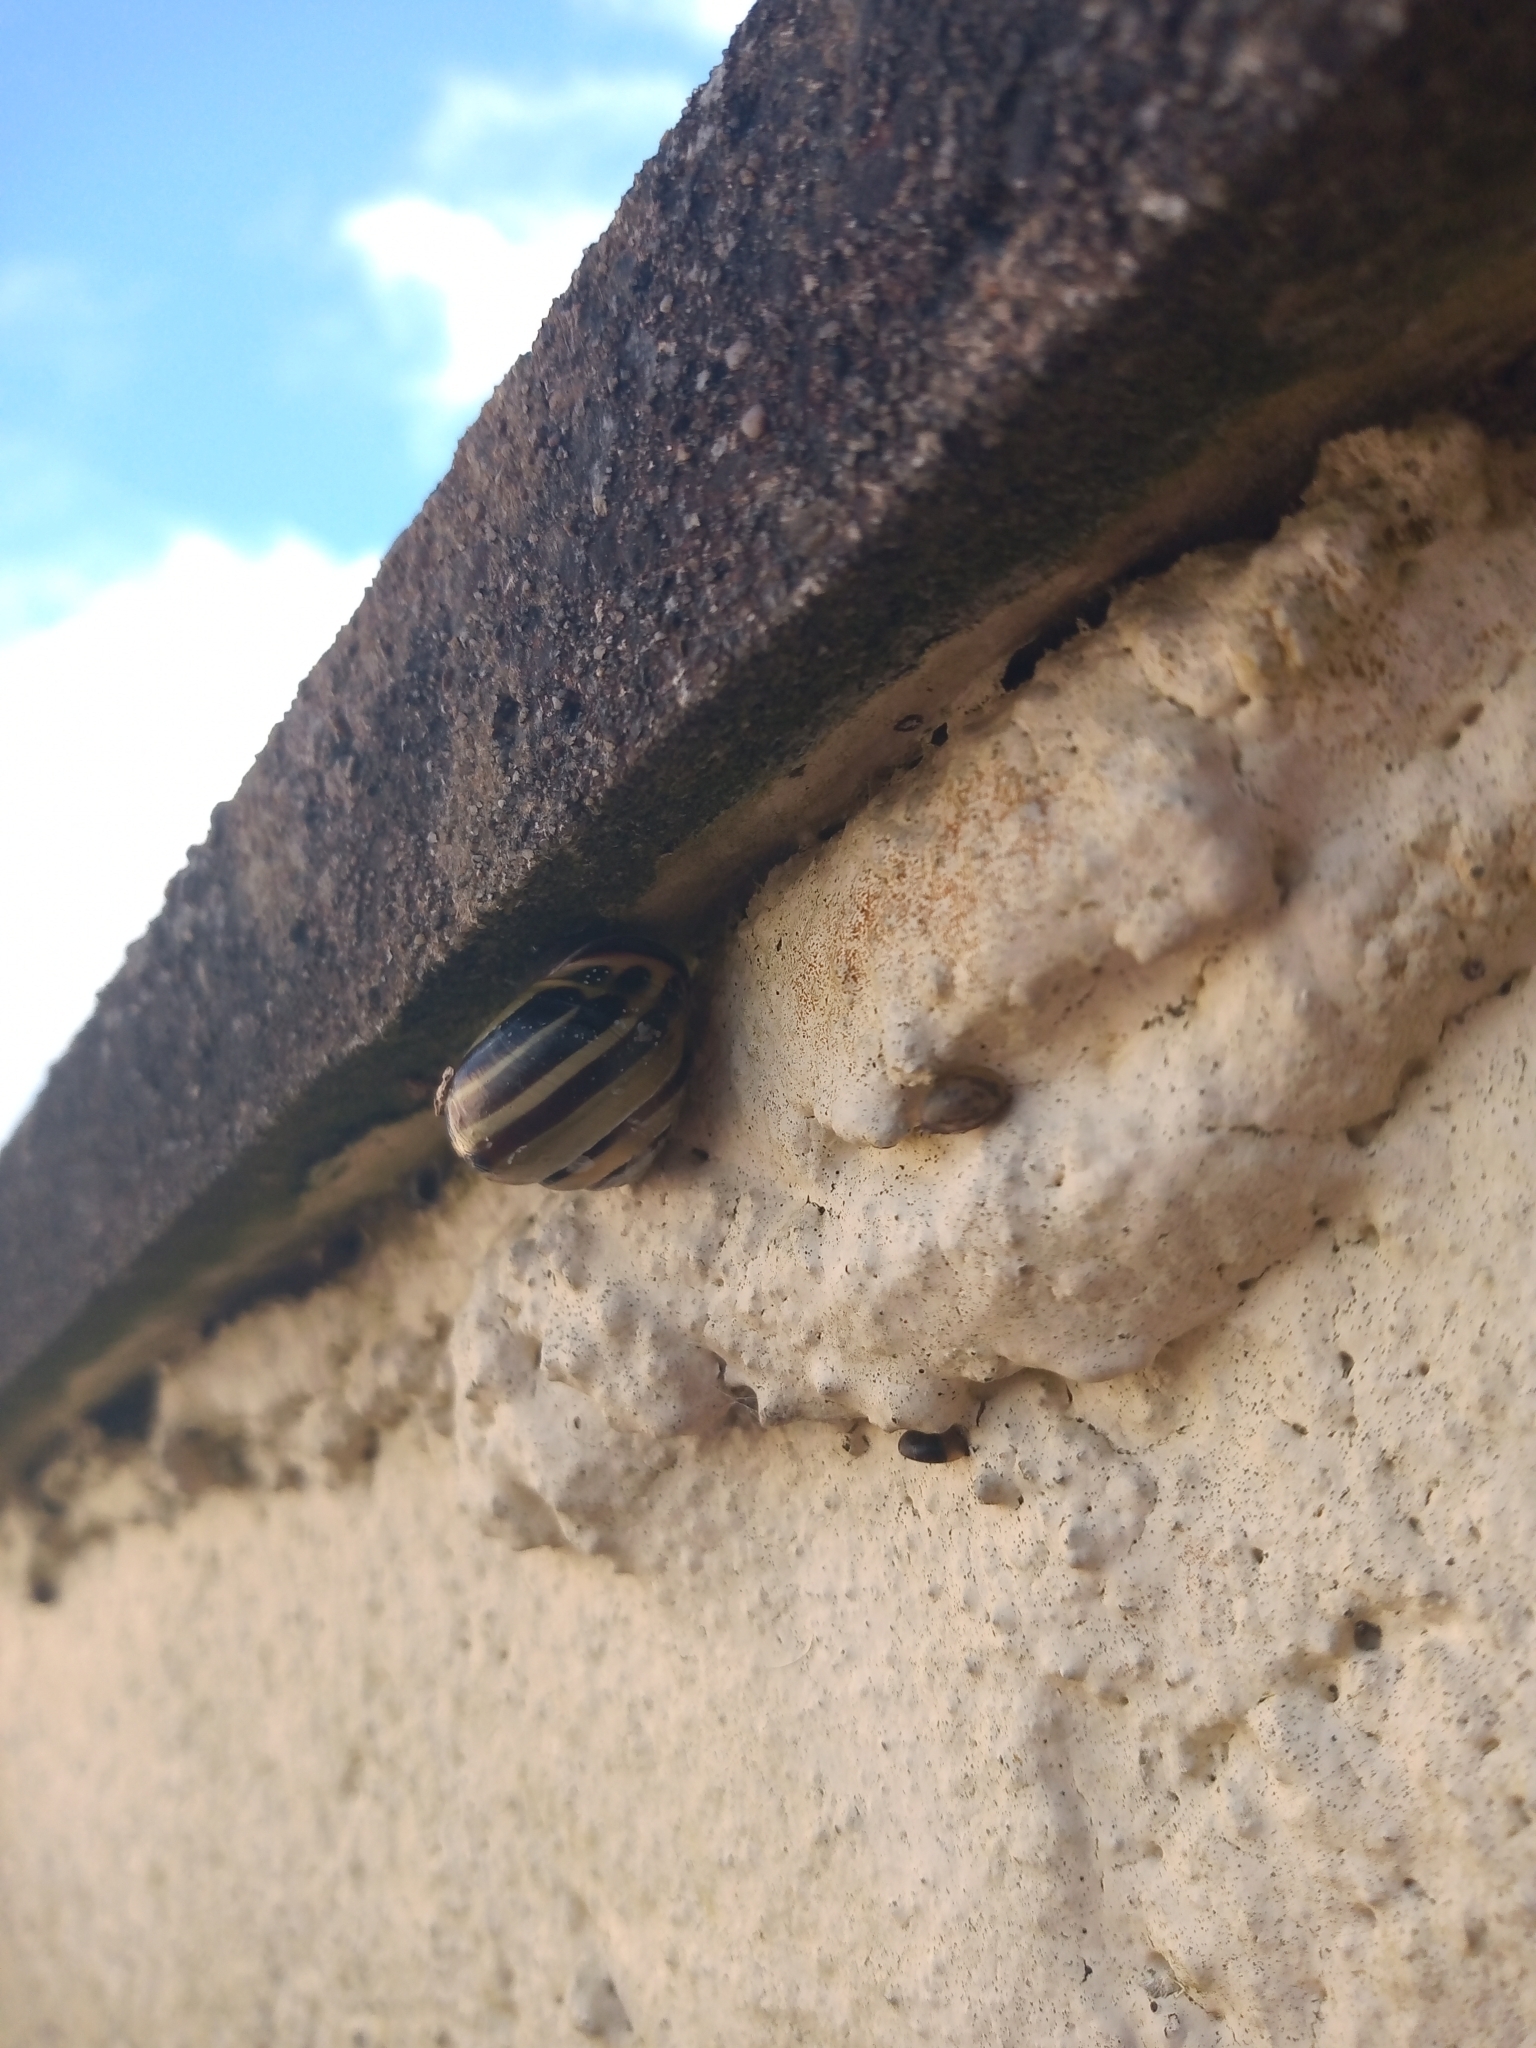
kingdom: Animalia
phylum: Mollusca
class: Gastropoda
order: Stylommatophora
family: Helicidae
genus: Cepaea
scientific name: Cepaea nemoralis
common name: Grovesnail
